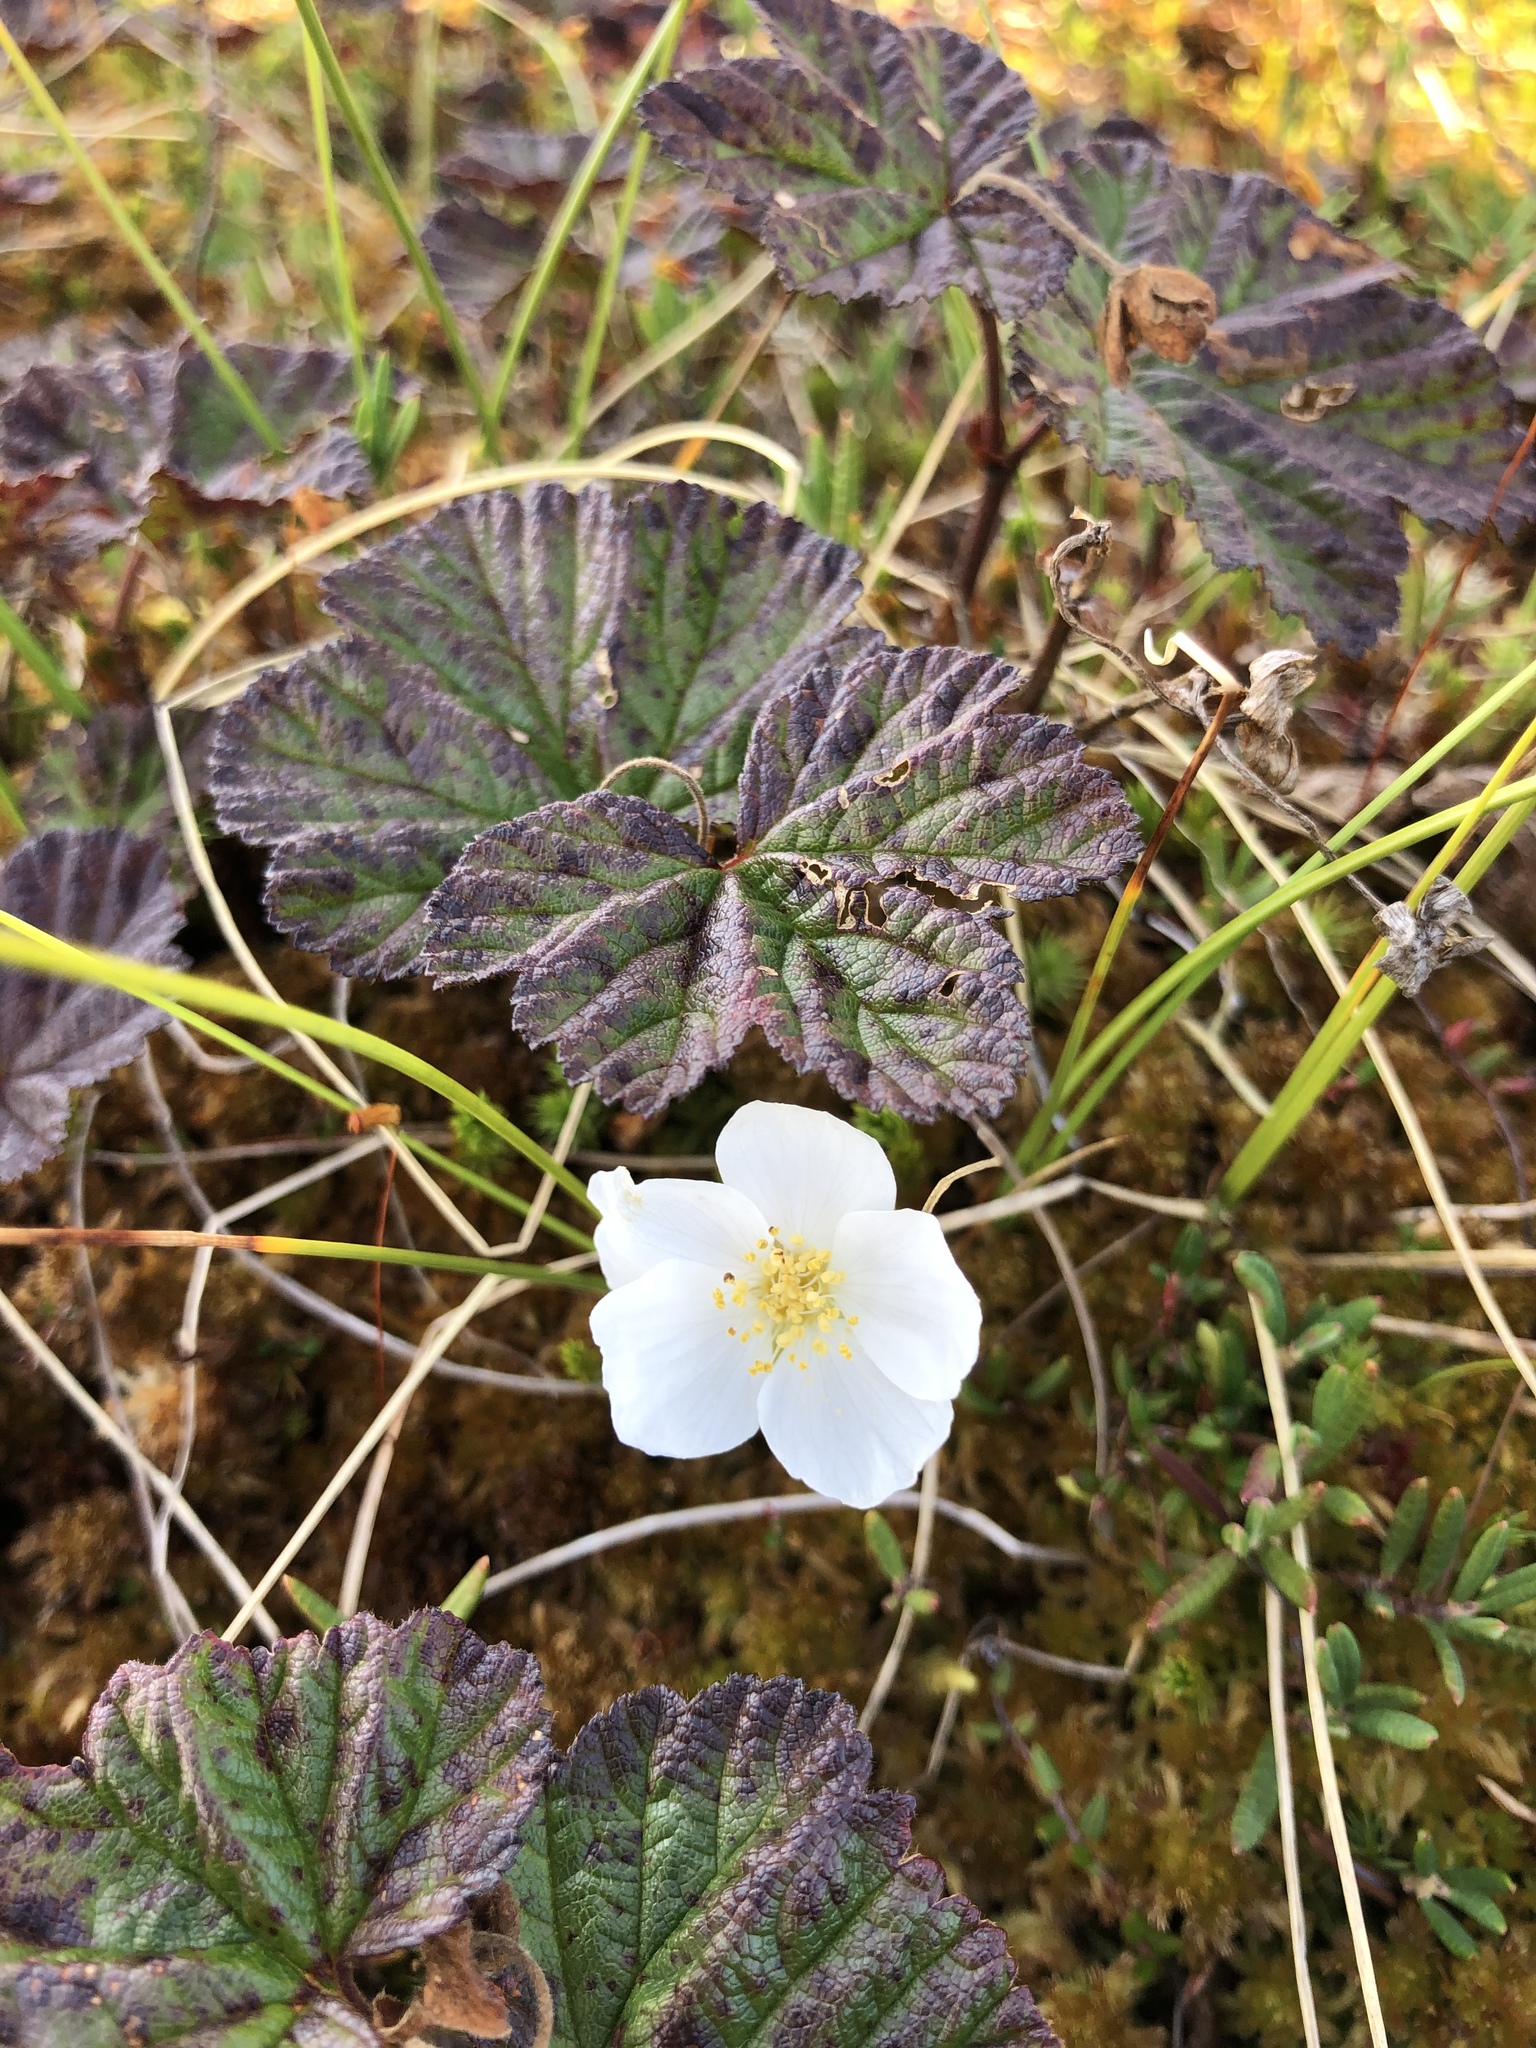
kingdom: Plantae
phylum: Tracheophyta
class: Magnoliopsida
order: Rosales
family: Rosaceae
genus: Rubus
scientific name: Rubus chamaemorus
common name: Cloudberry
